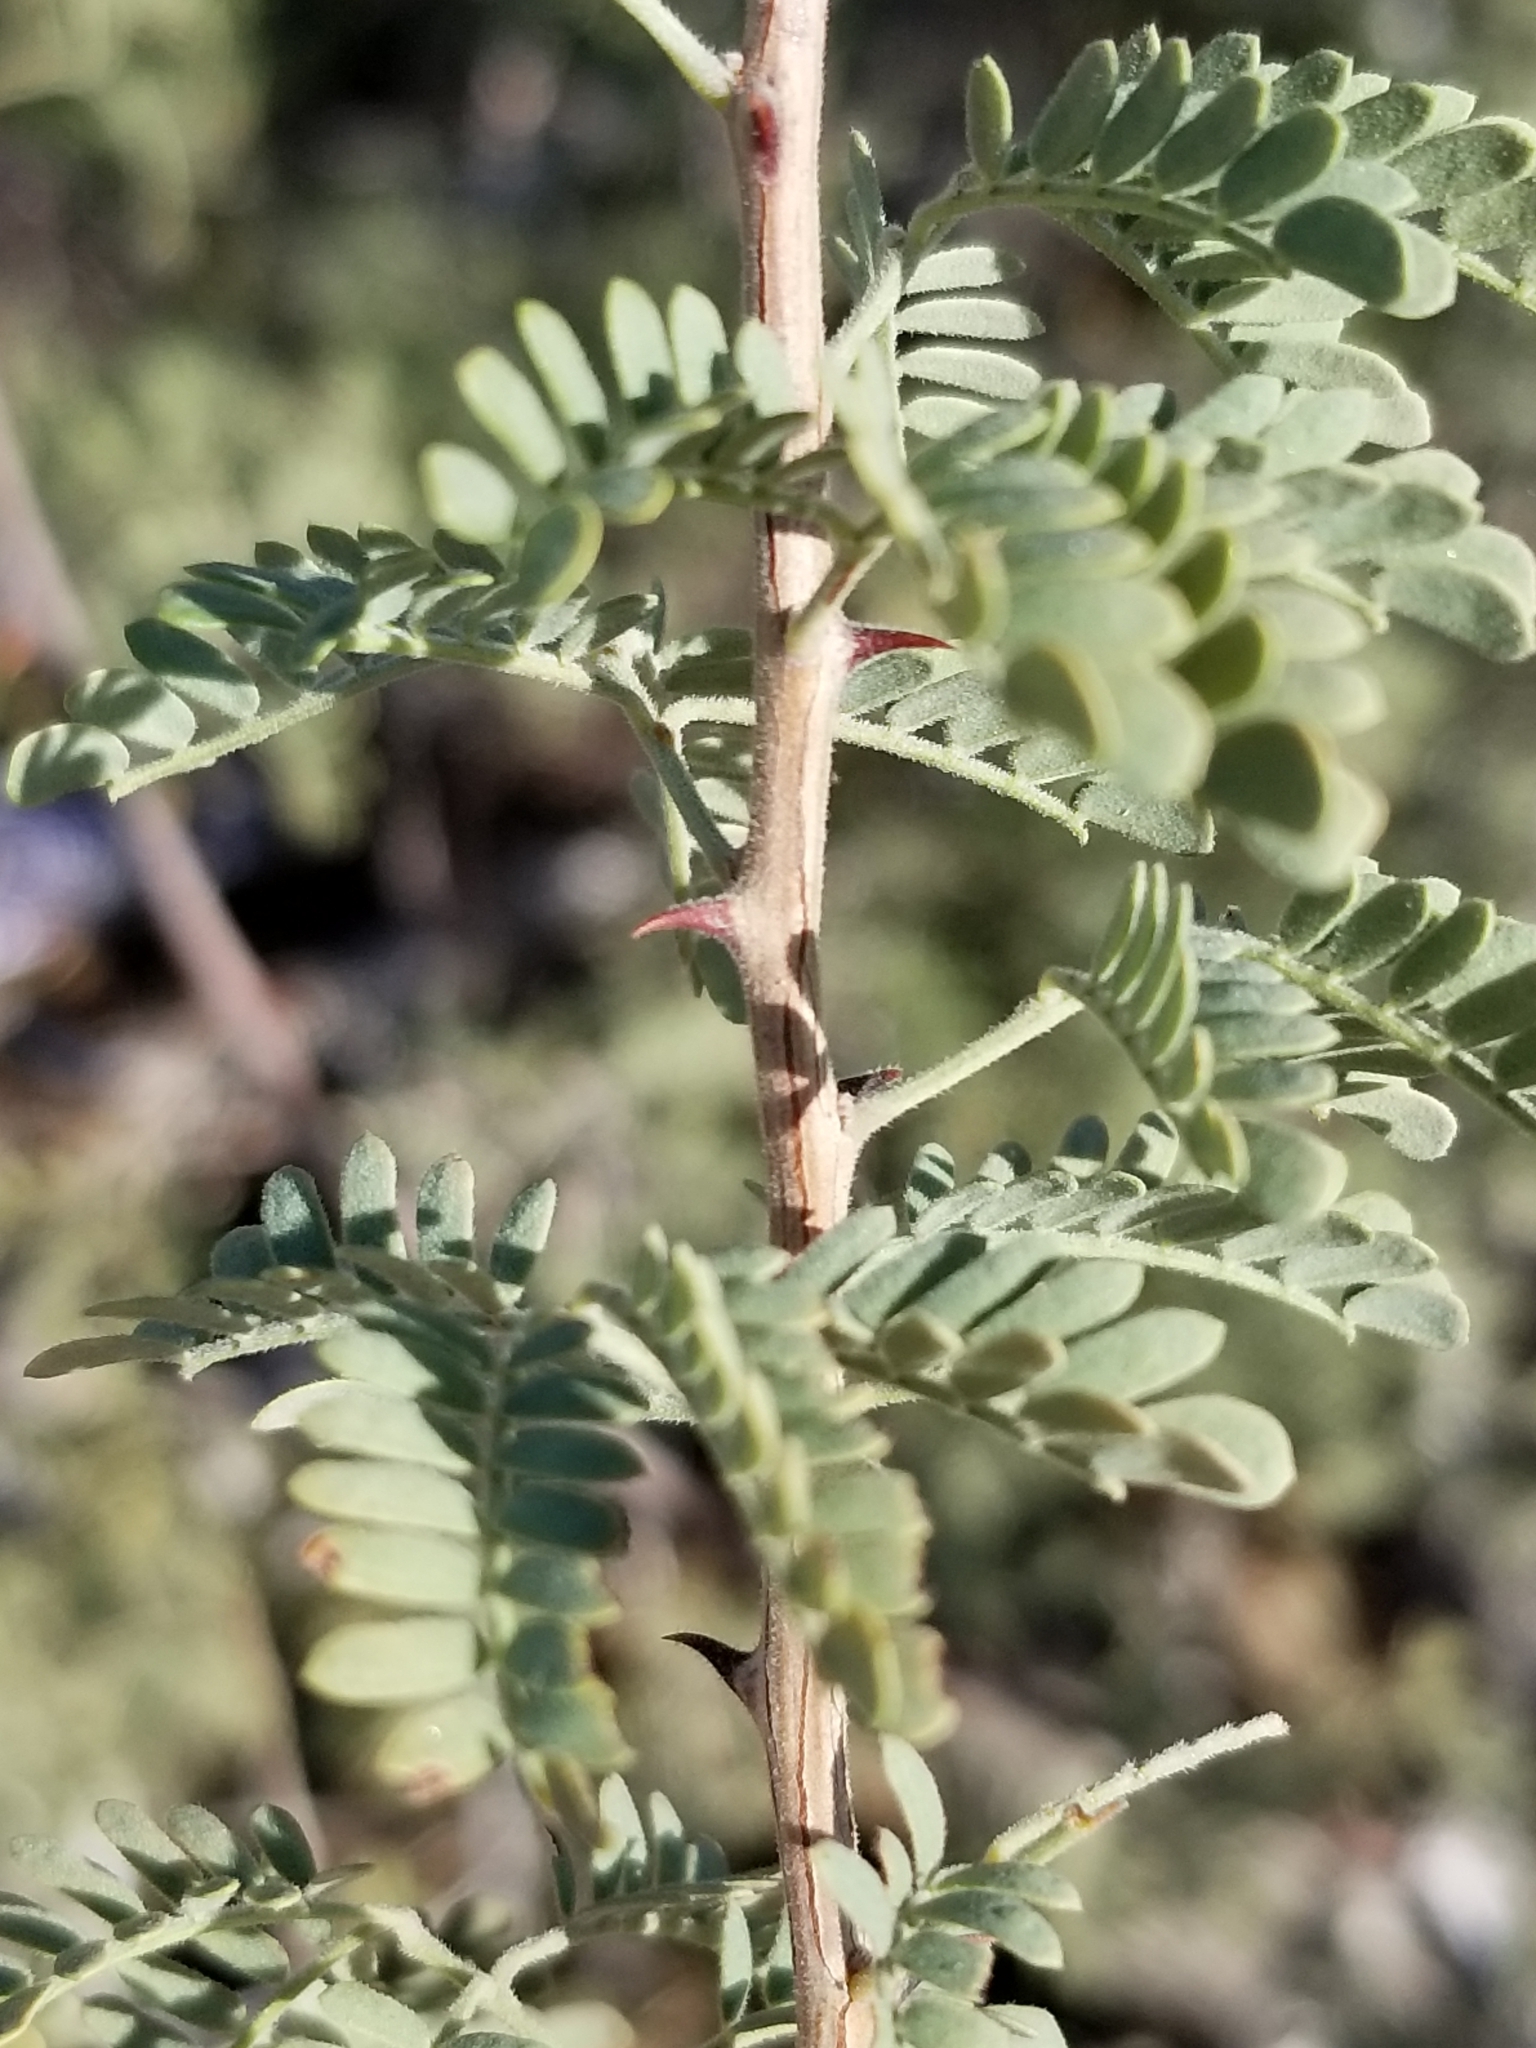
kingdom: Plantae
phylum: Tracheophyta
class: Magnoliopsida
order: Fabales
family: Fabaceae
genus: Senegalia
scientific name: Senegalia greggii
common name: Texas-mimosa
